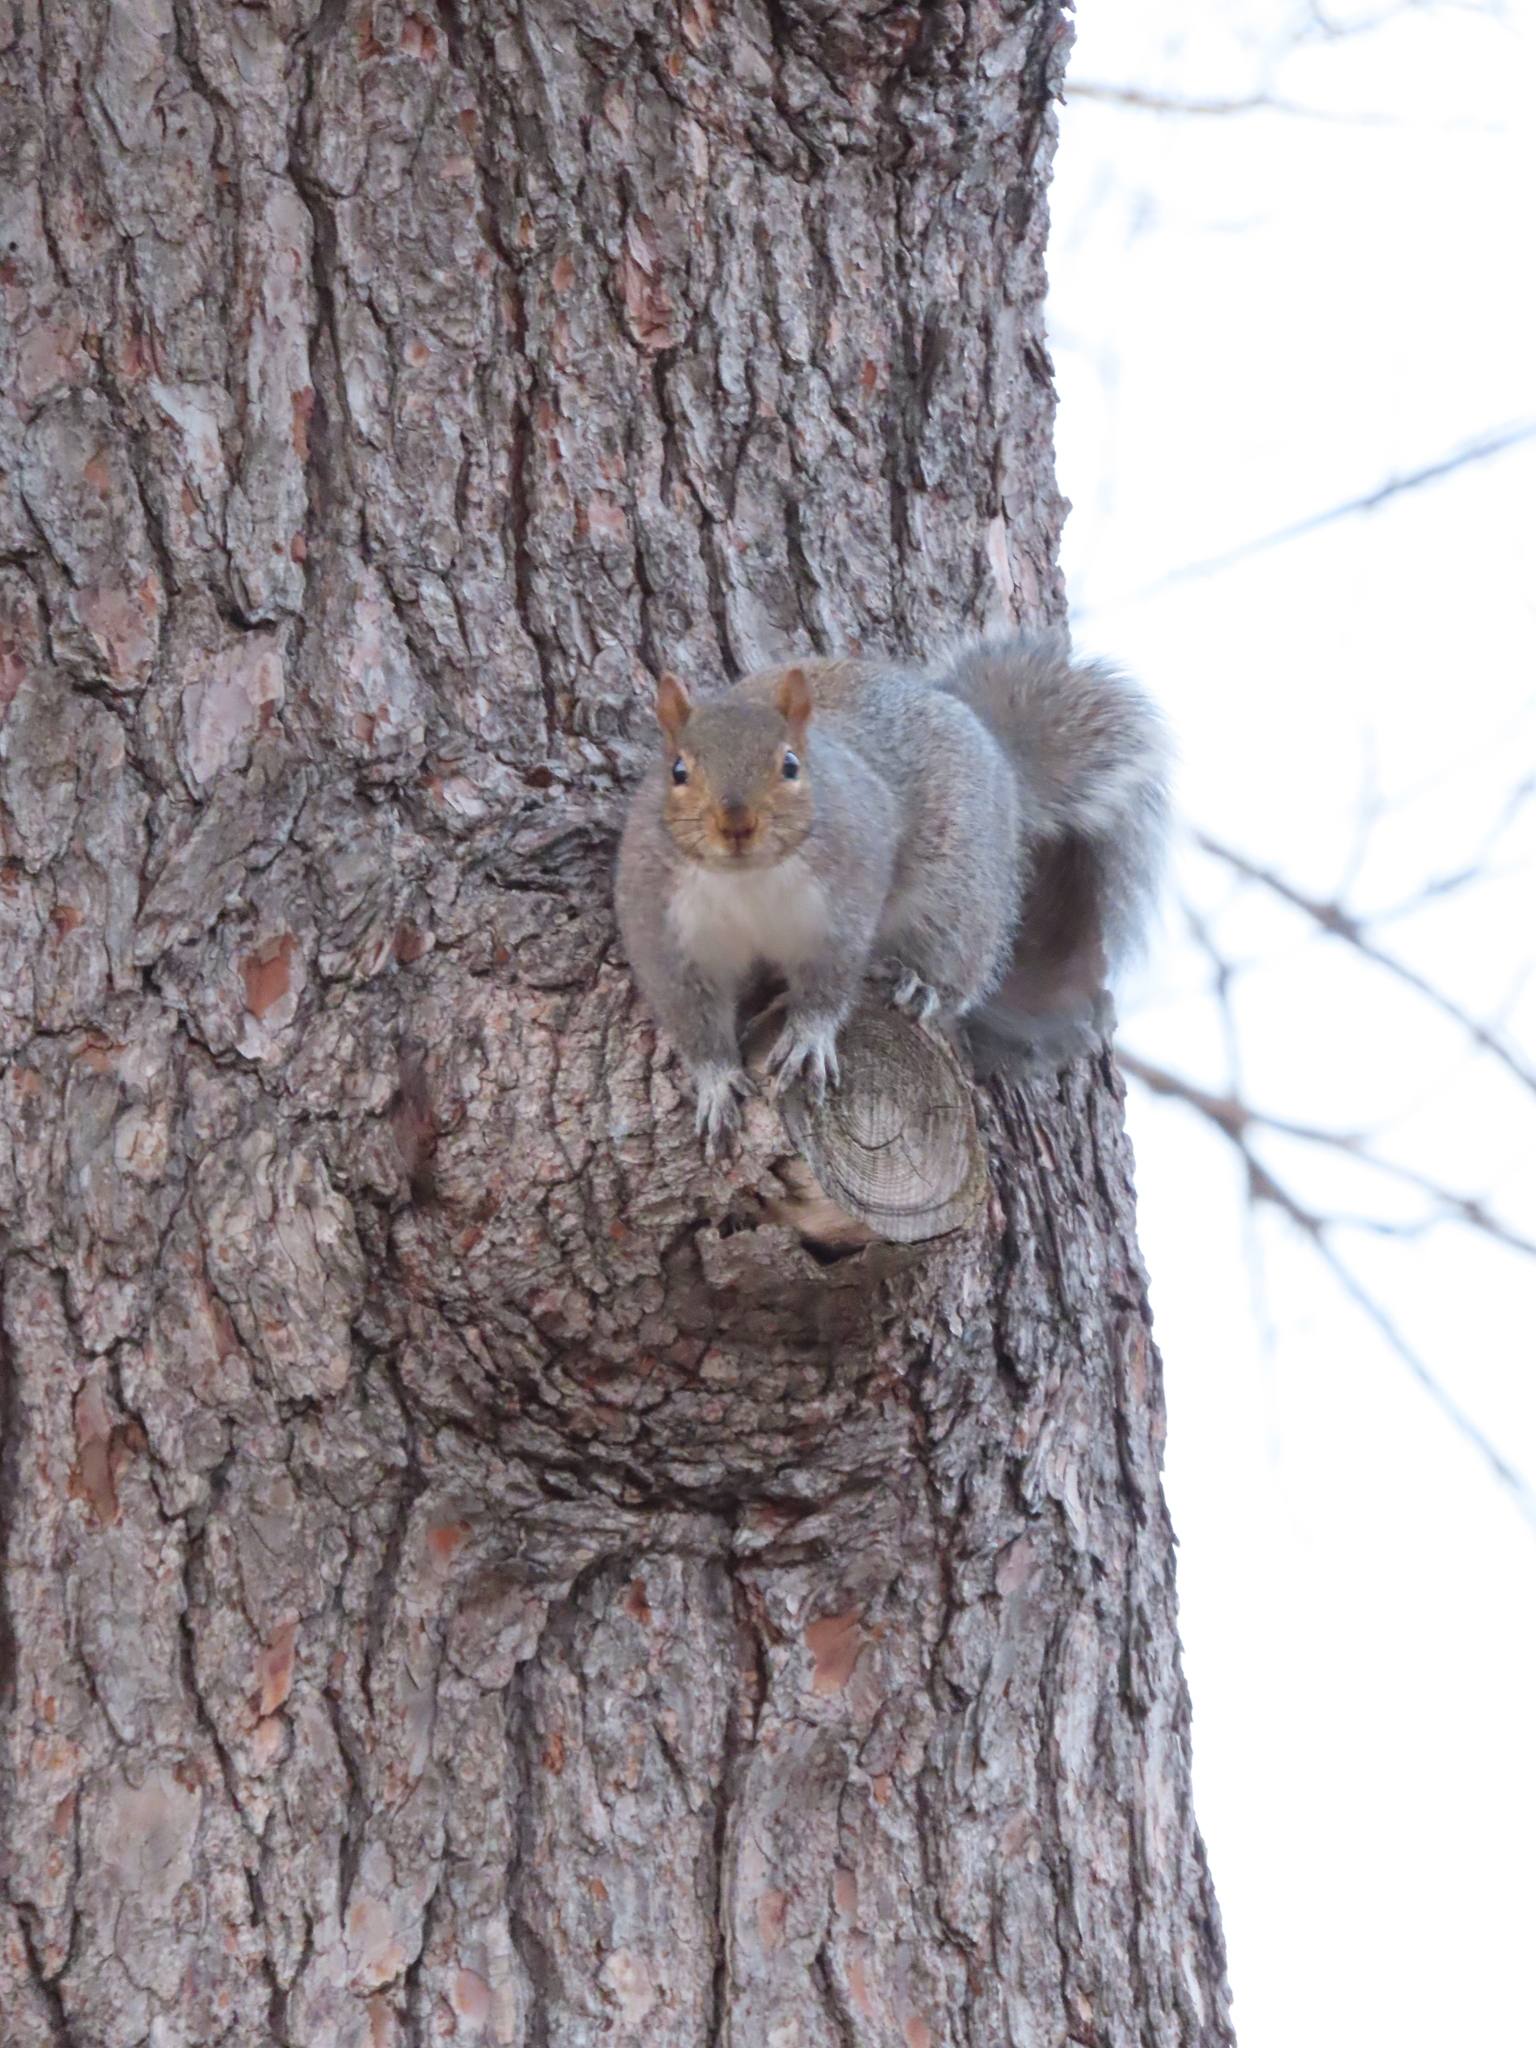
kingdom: Animalia
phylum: Chordata
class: Mammalia
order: Rodentia
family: Sciuridae
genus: Sciurus
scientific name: Sciurus carolinensis
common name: Eastern gray squirrel
